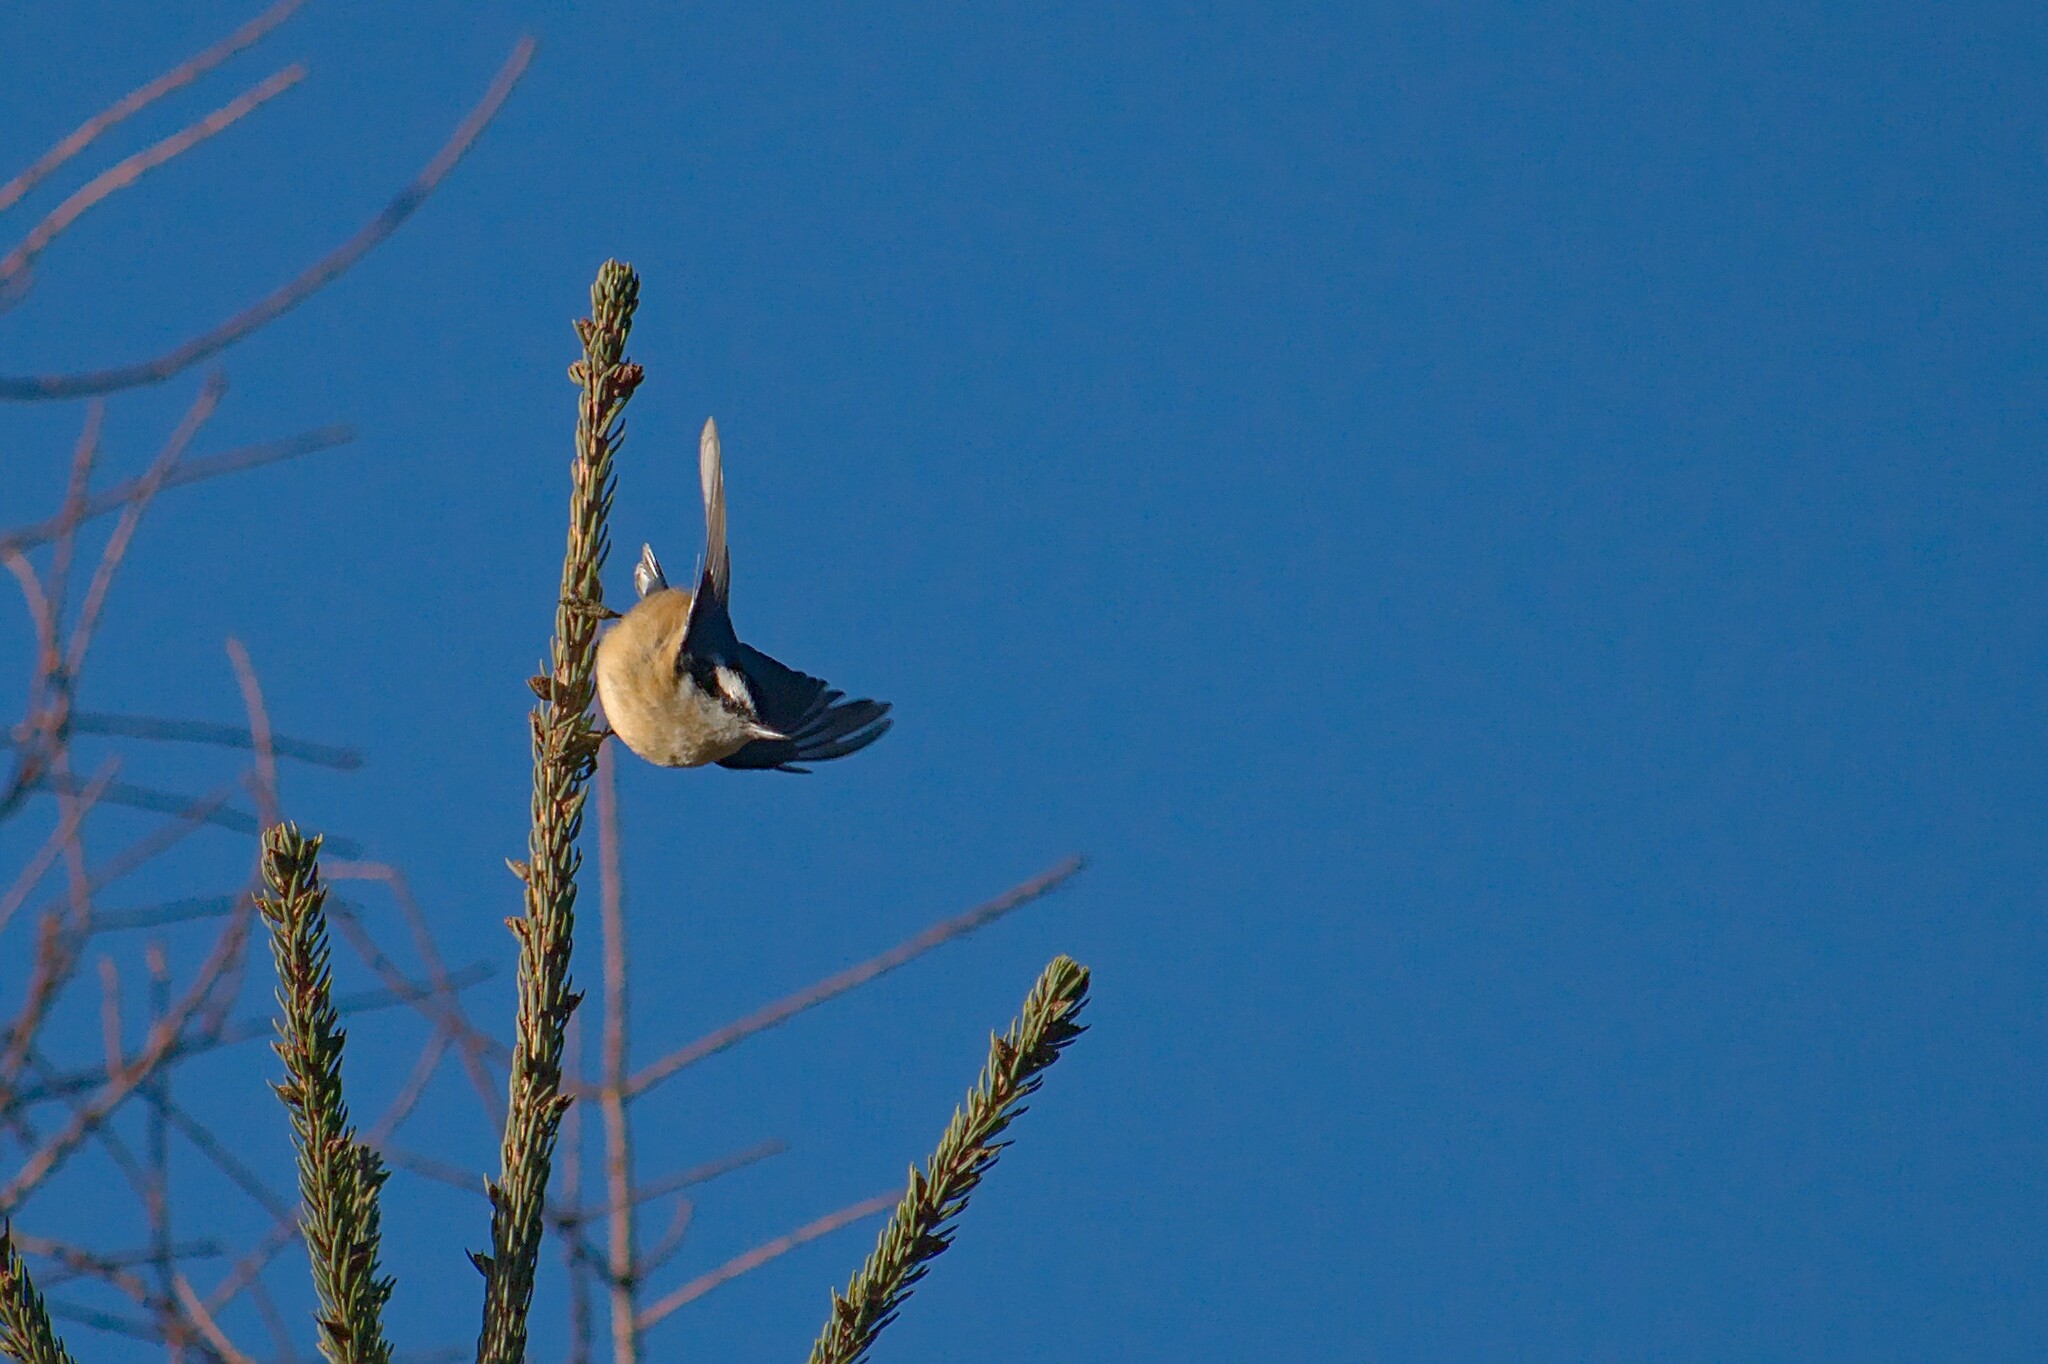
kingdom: Animalia
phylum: Chordata
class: Aves
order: Passeriformes
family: Sittidae
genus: Sitta
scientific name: Sitta canadensis
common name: Red-breasted nuthatch
